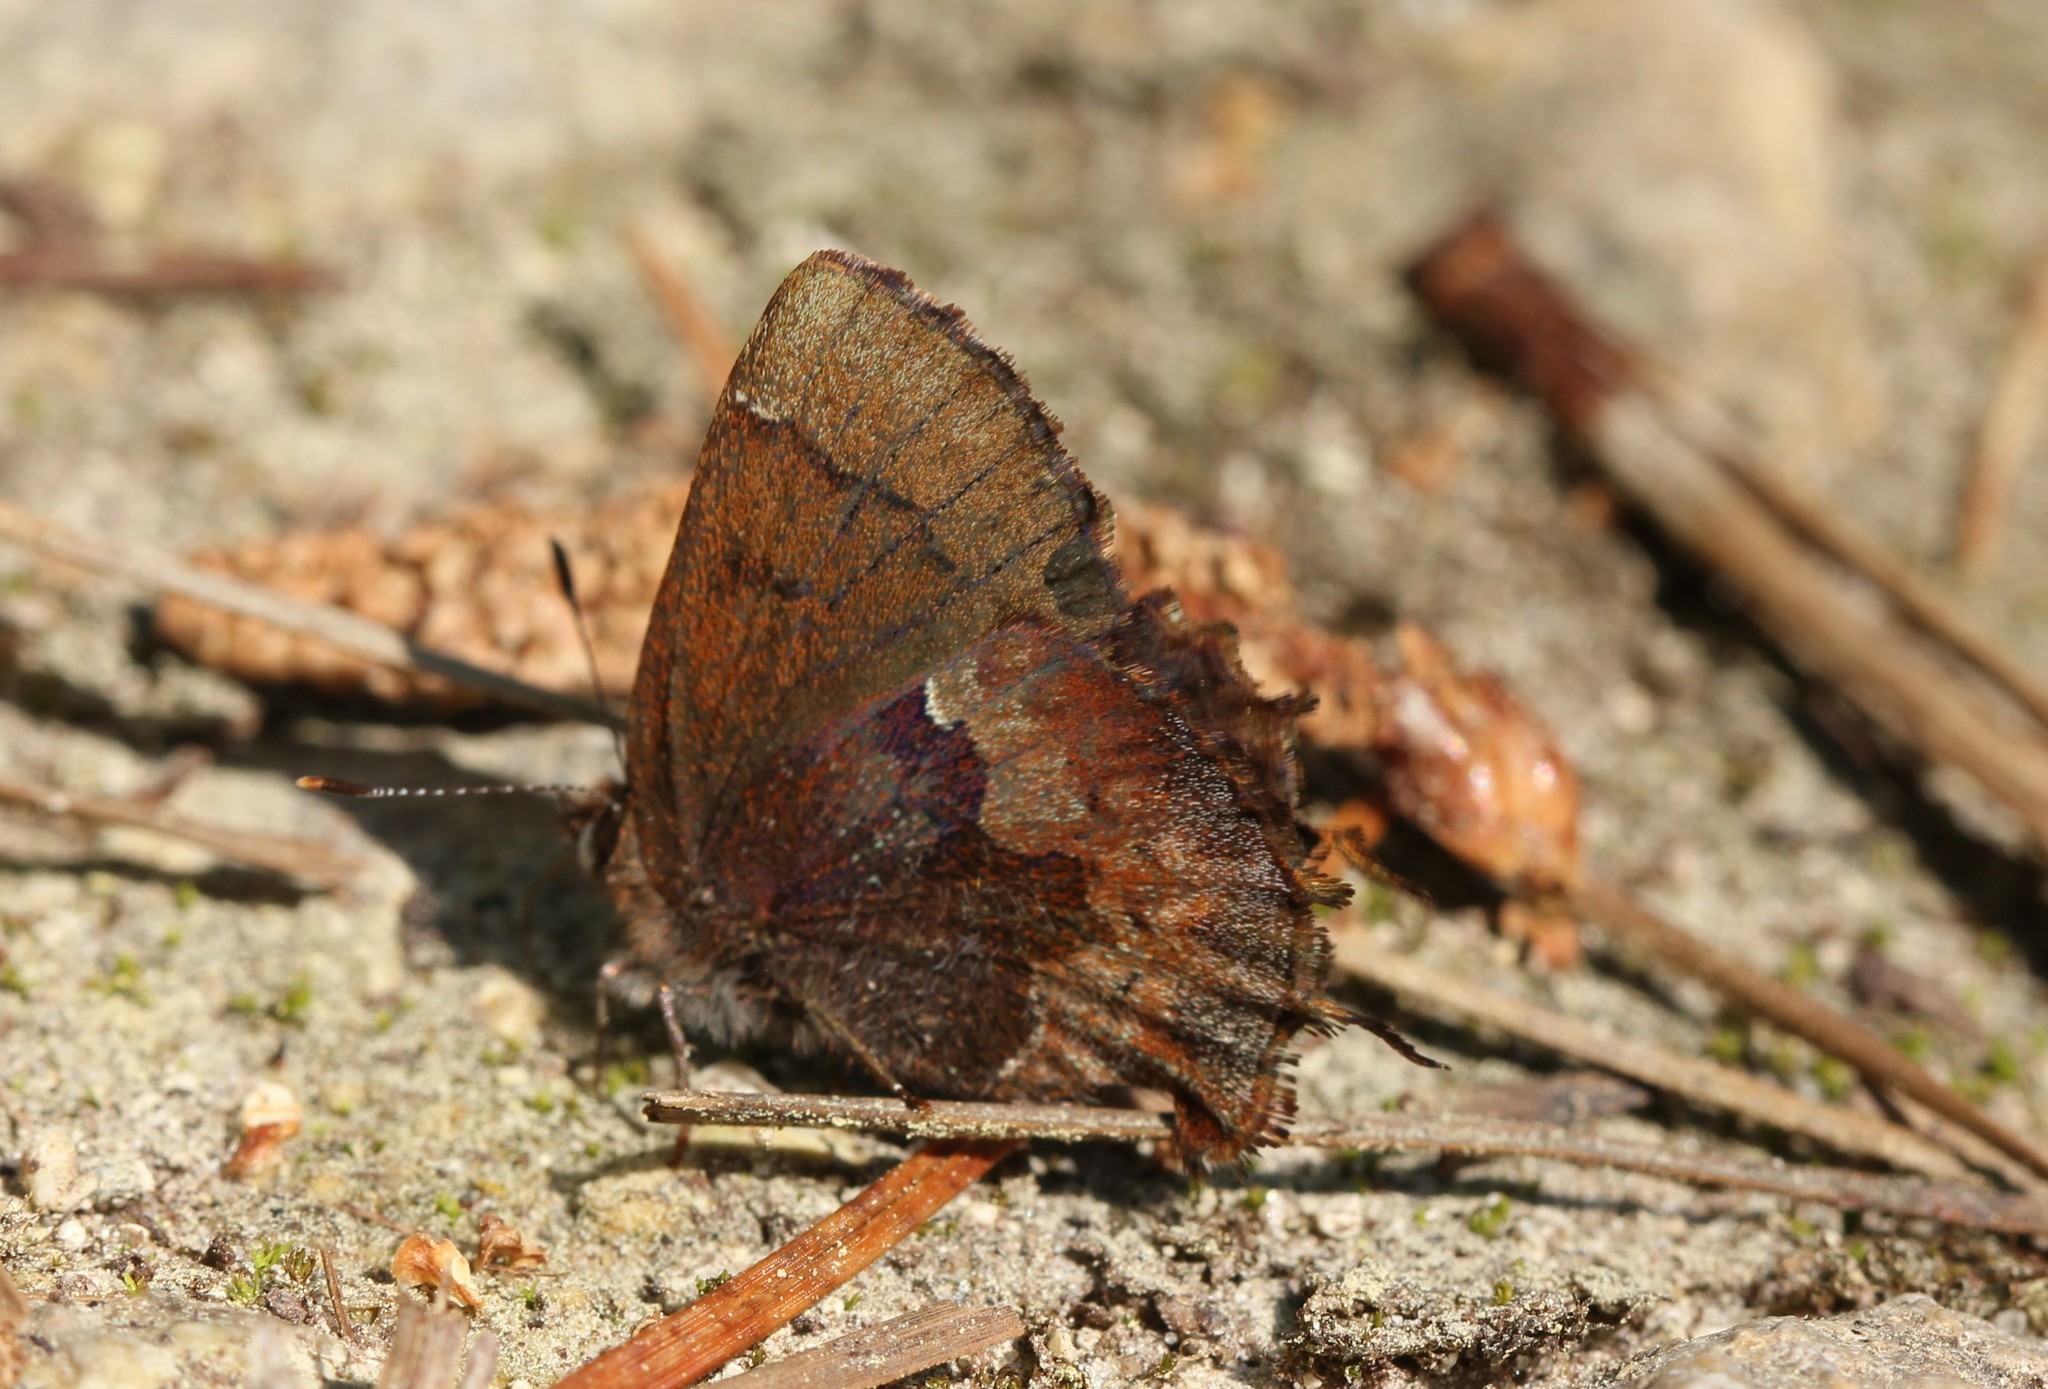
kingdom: Animalia
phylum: Arthropoda
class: Insecta
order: Lepidoptera
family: Lycaenidae
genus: Incisalia
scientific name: Incisalia henrici
